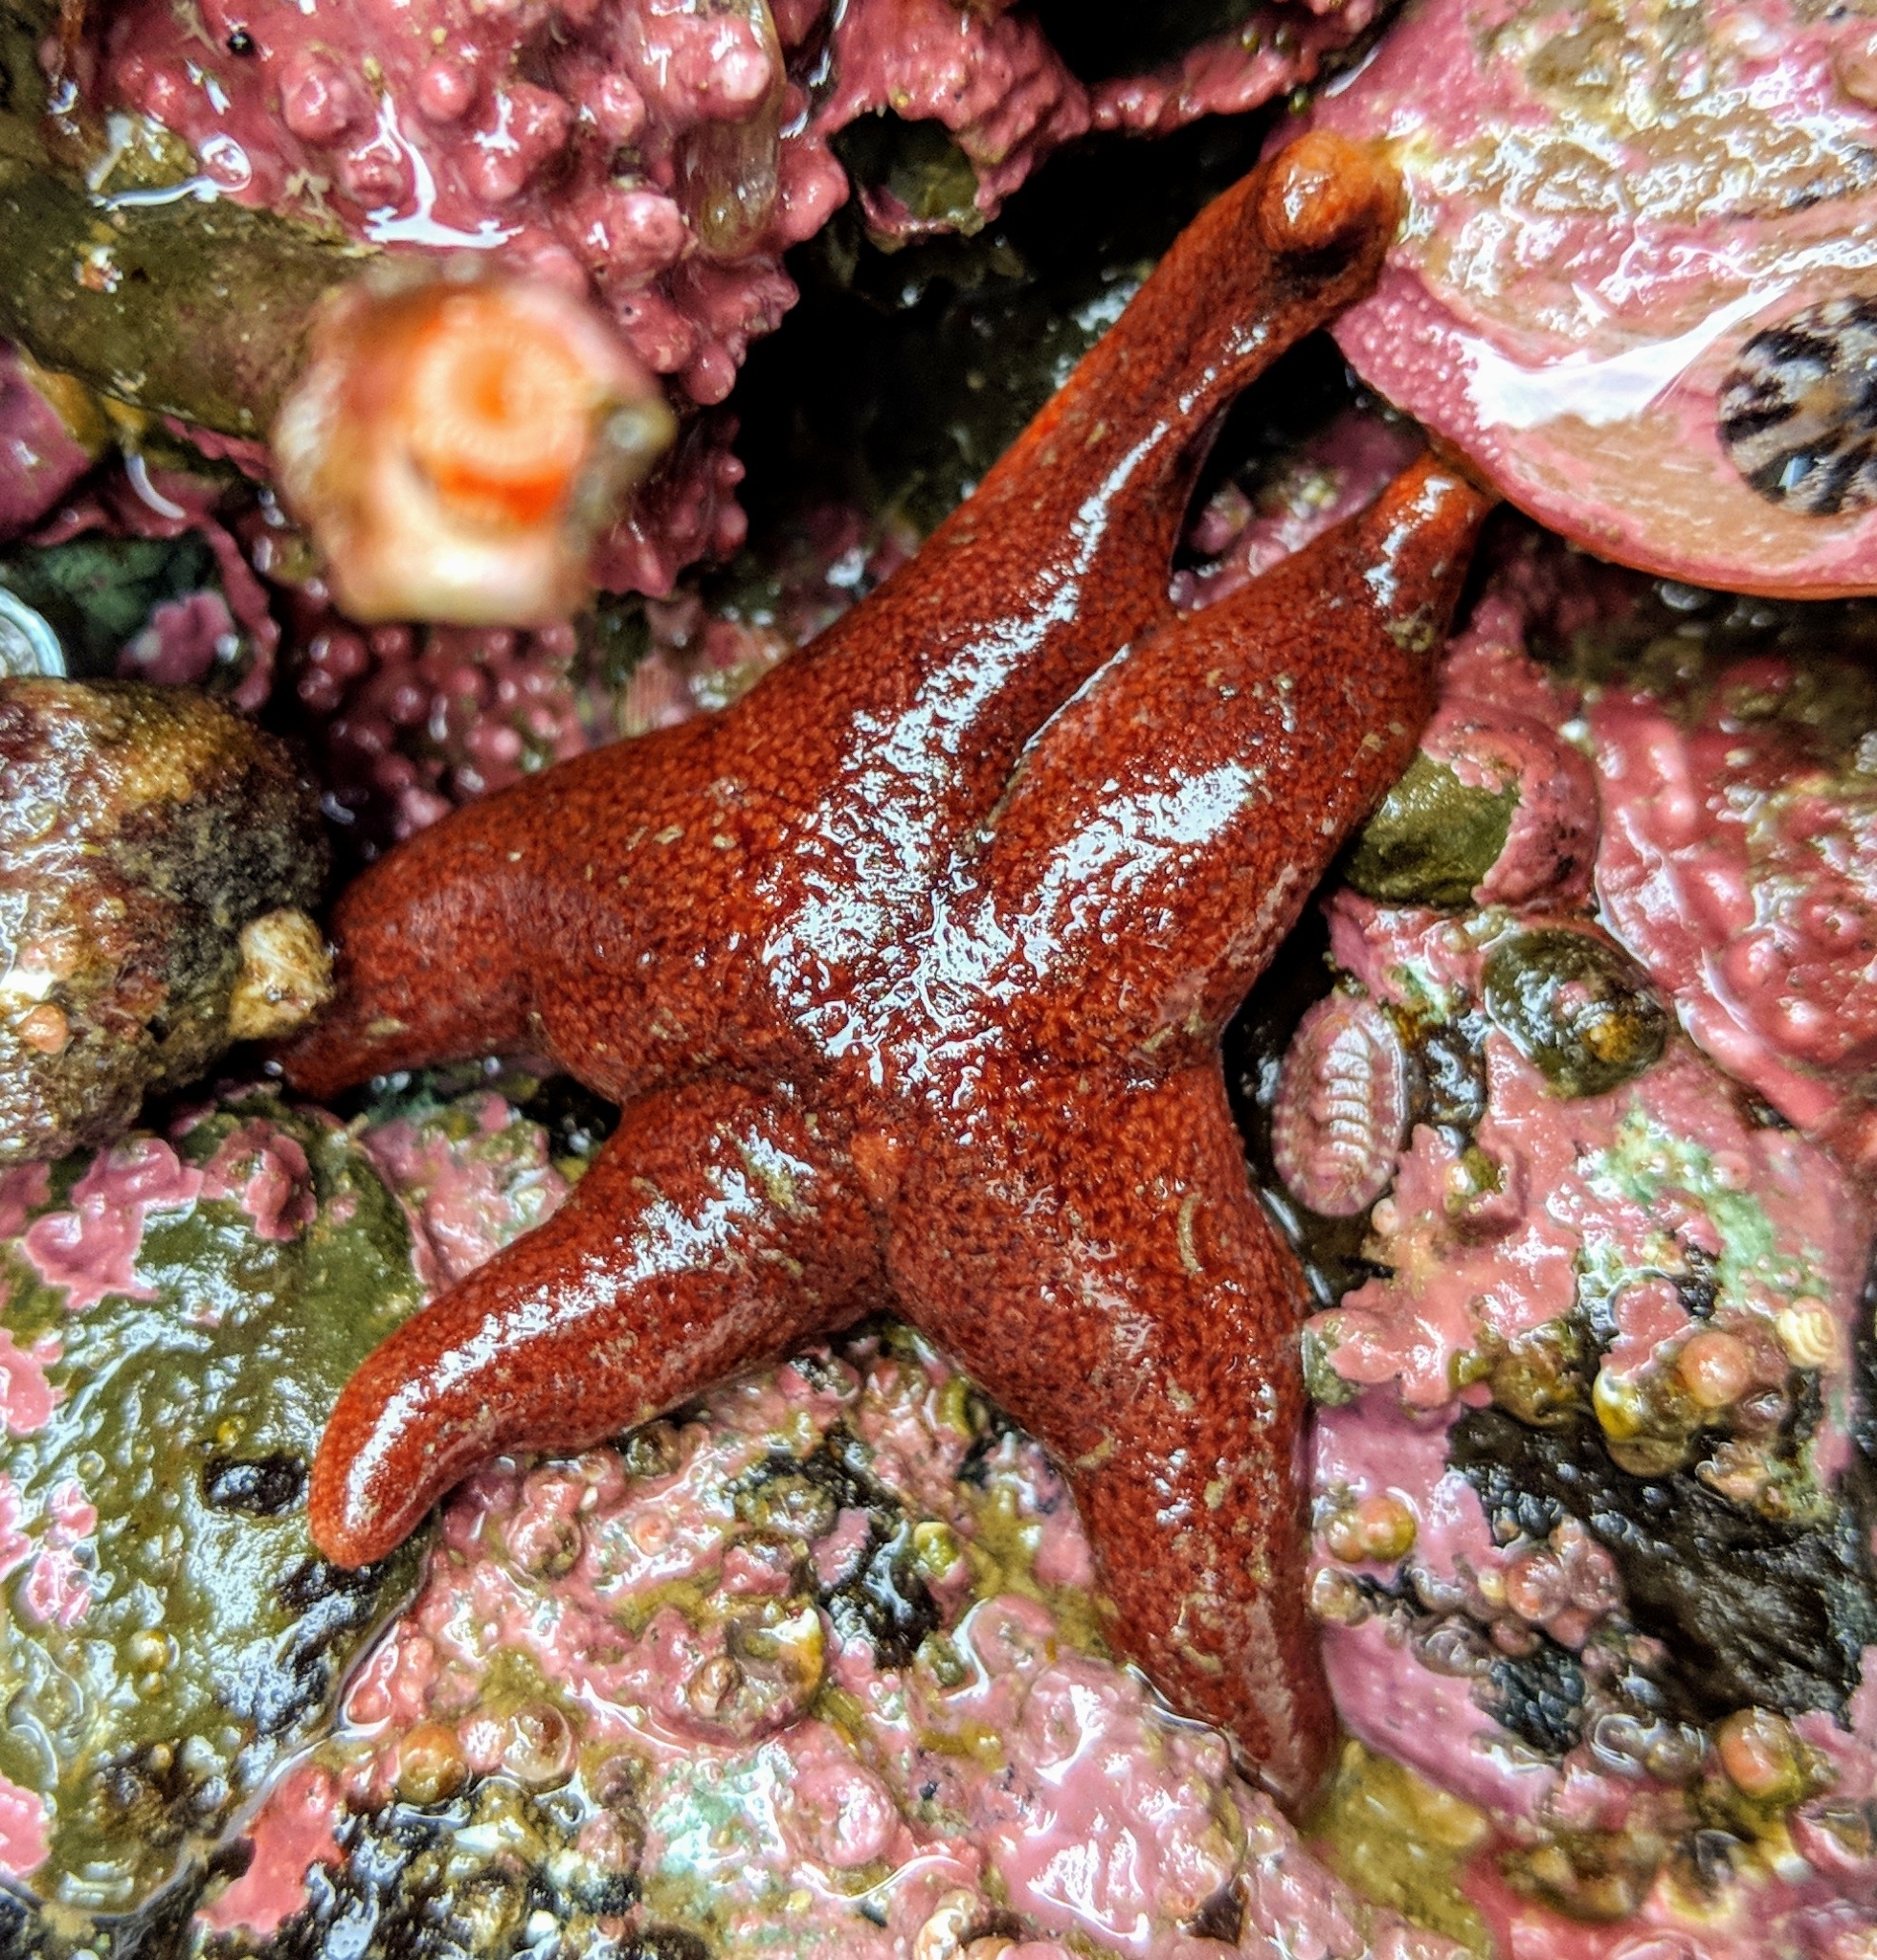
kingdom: Animalia
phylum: Echinodermata
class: Asteroidea
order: Spinulosida
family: Echinasteridae
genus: Henricia
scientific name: Henricia tumida
